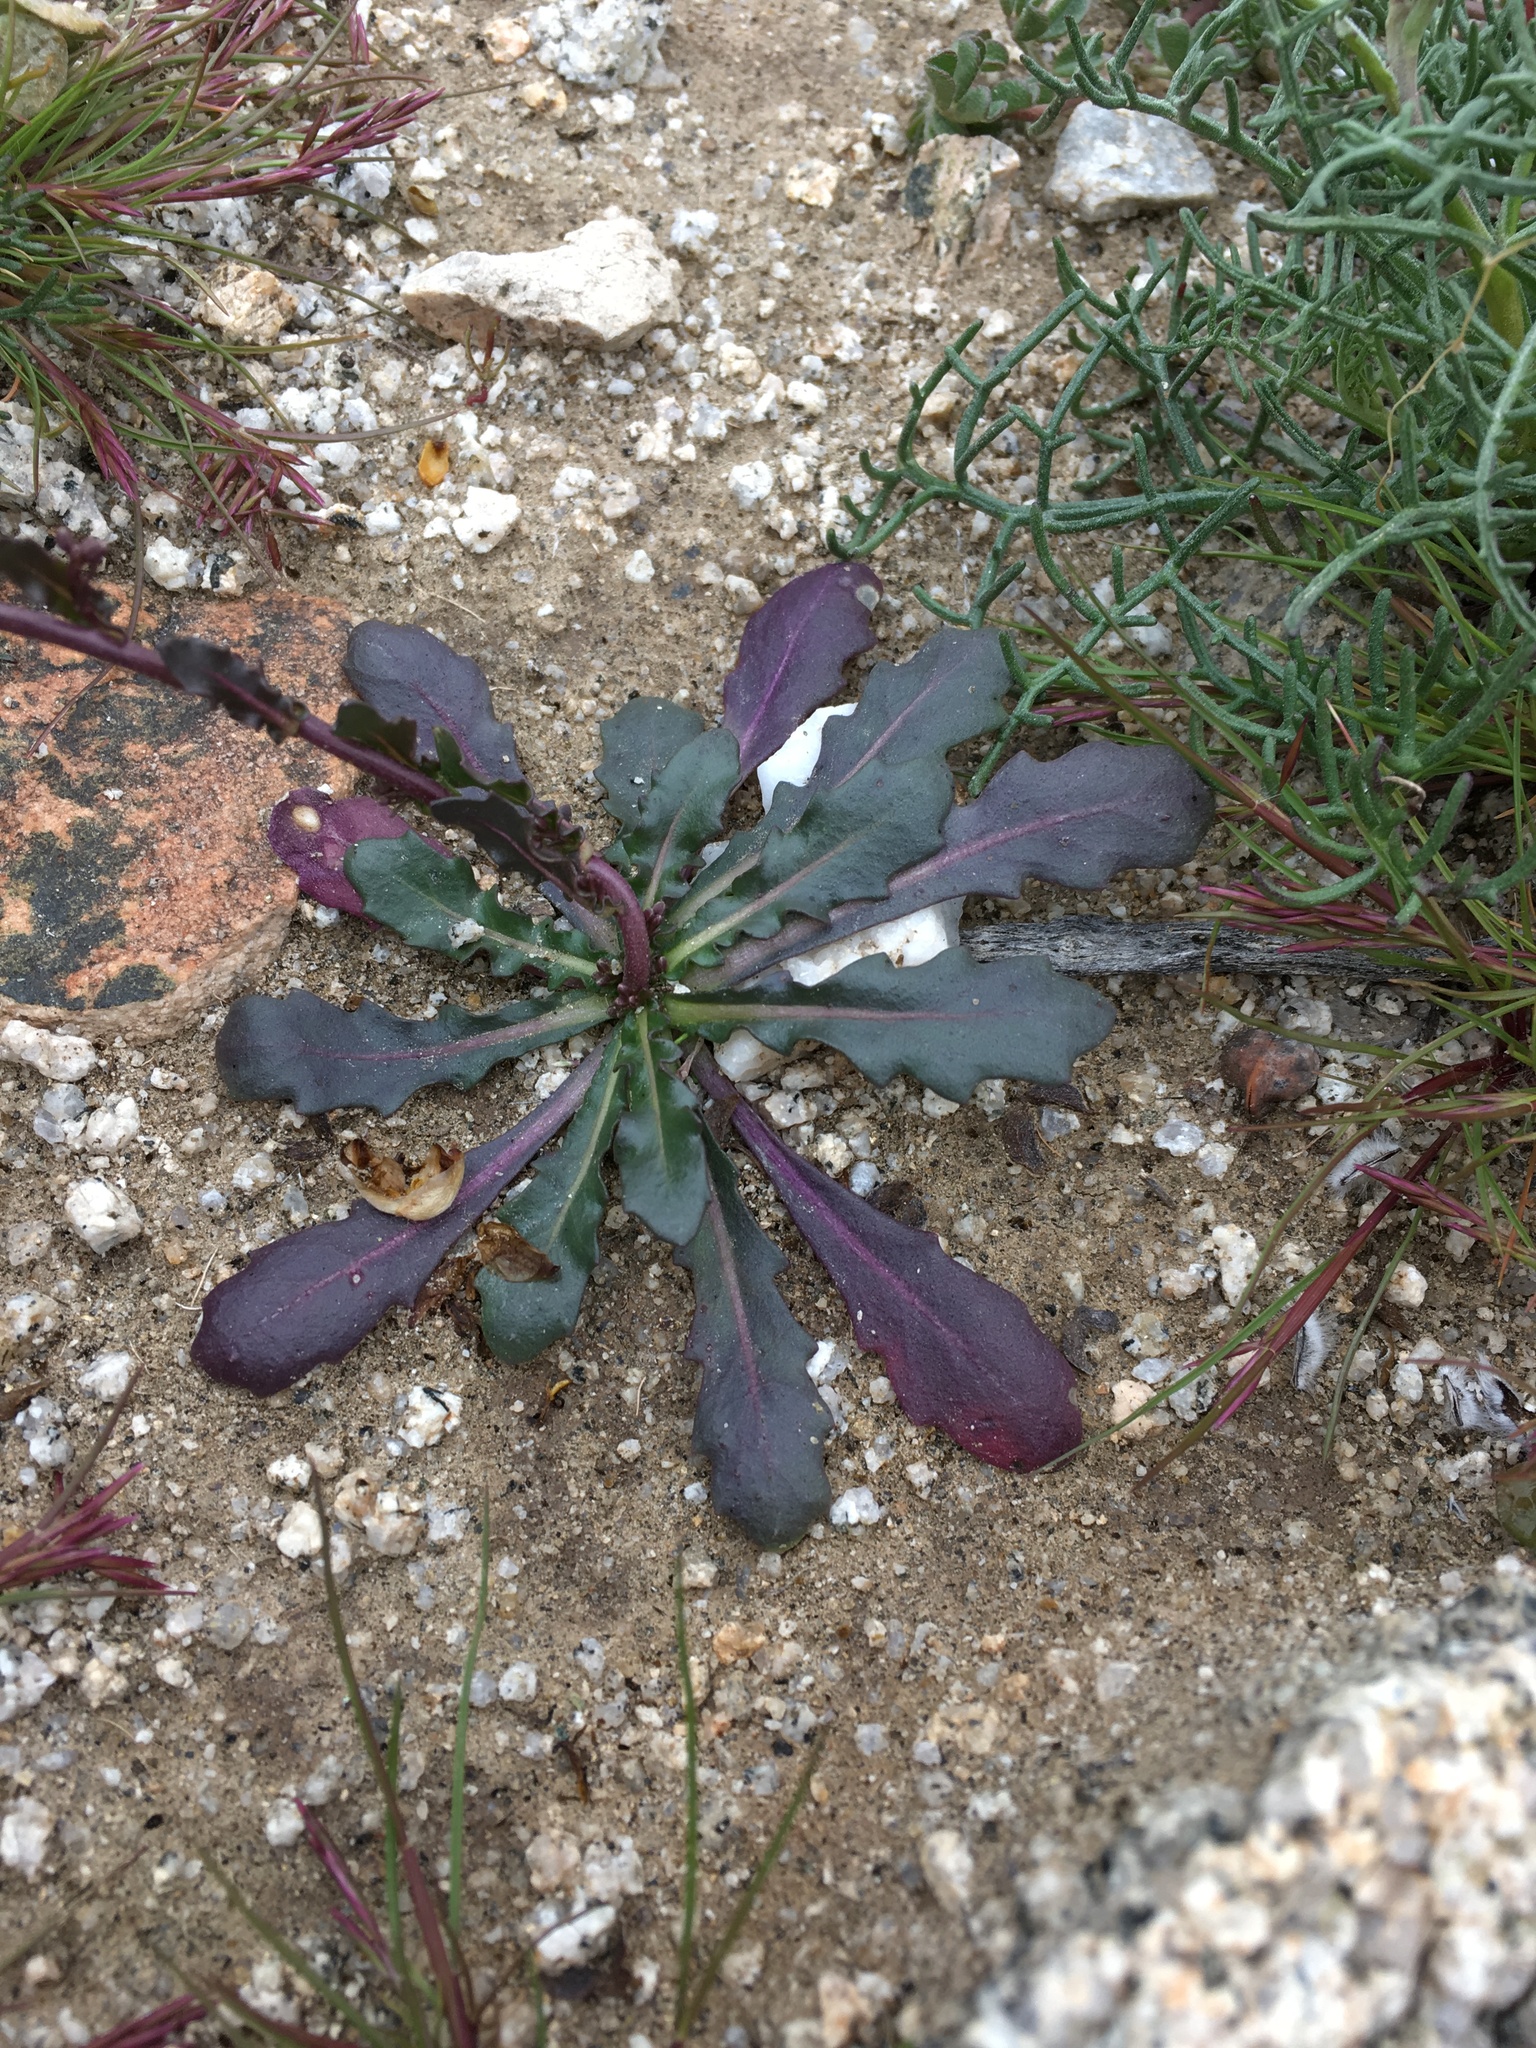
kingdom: Plantae
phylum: Tracheophyta
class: Magnoliopsida
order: Brassicales
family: Brassicaceae
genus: Streptanthus
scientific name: Streptanthus cooperi
